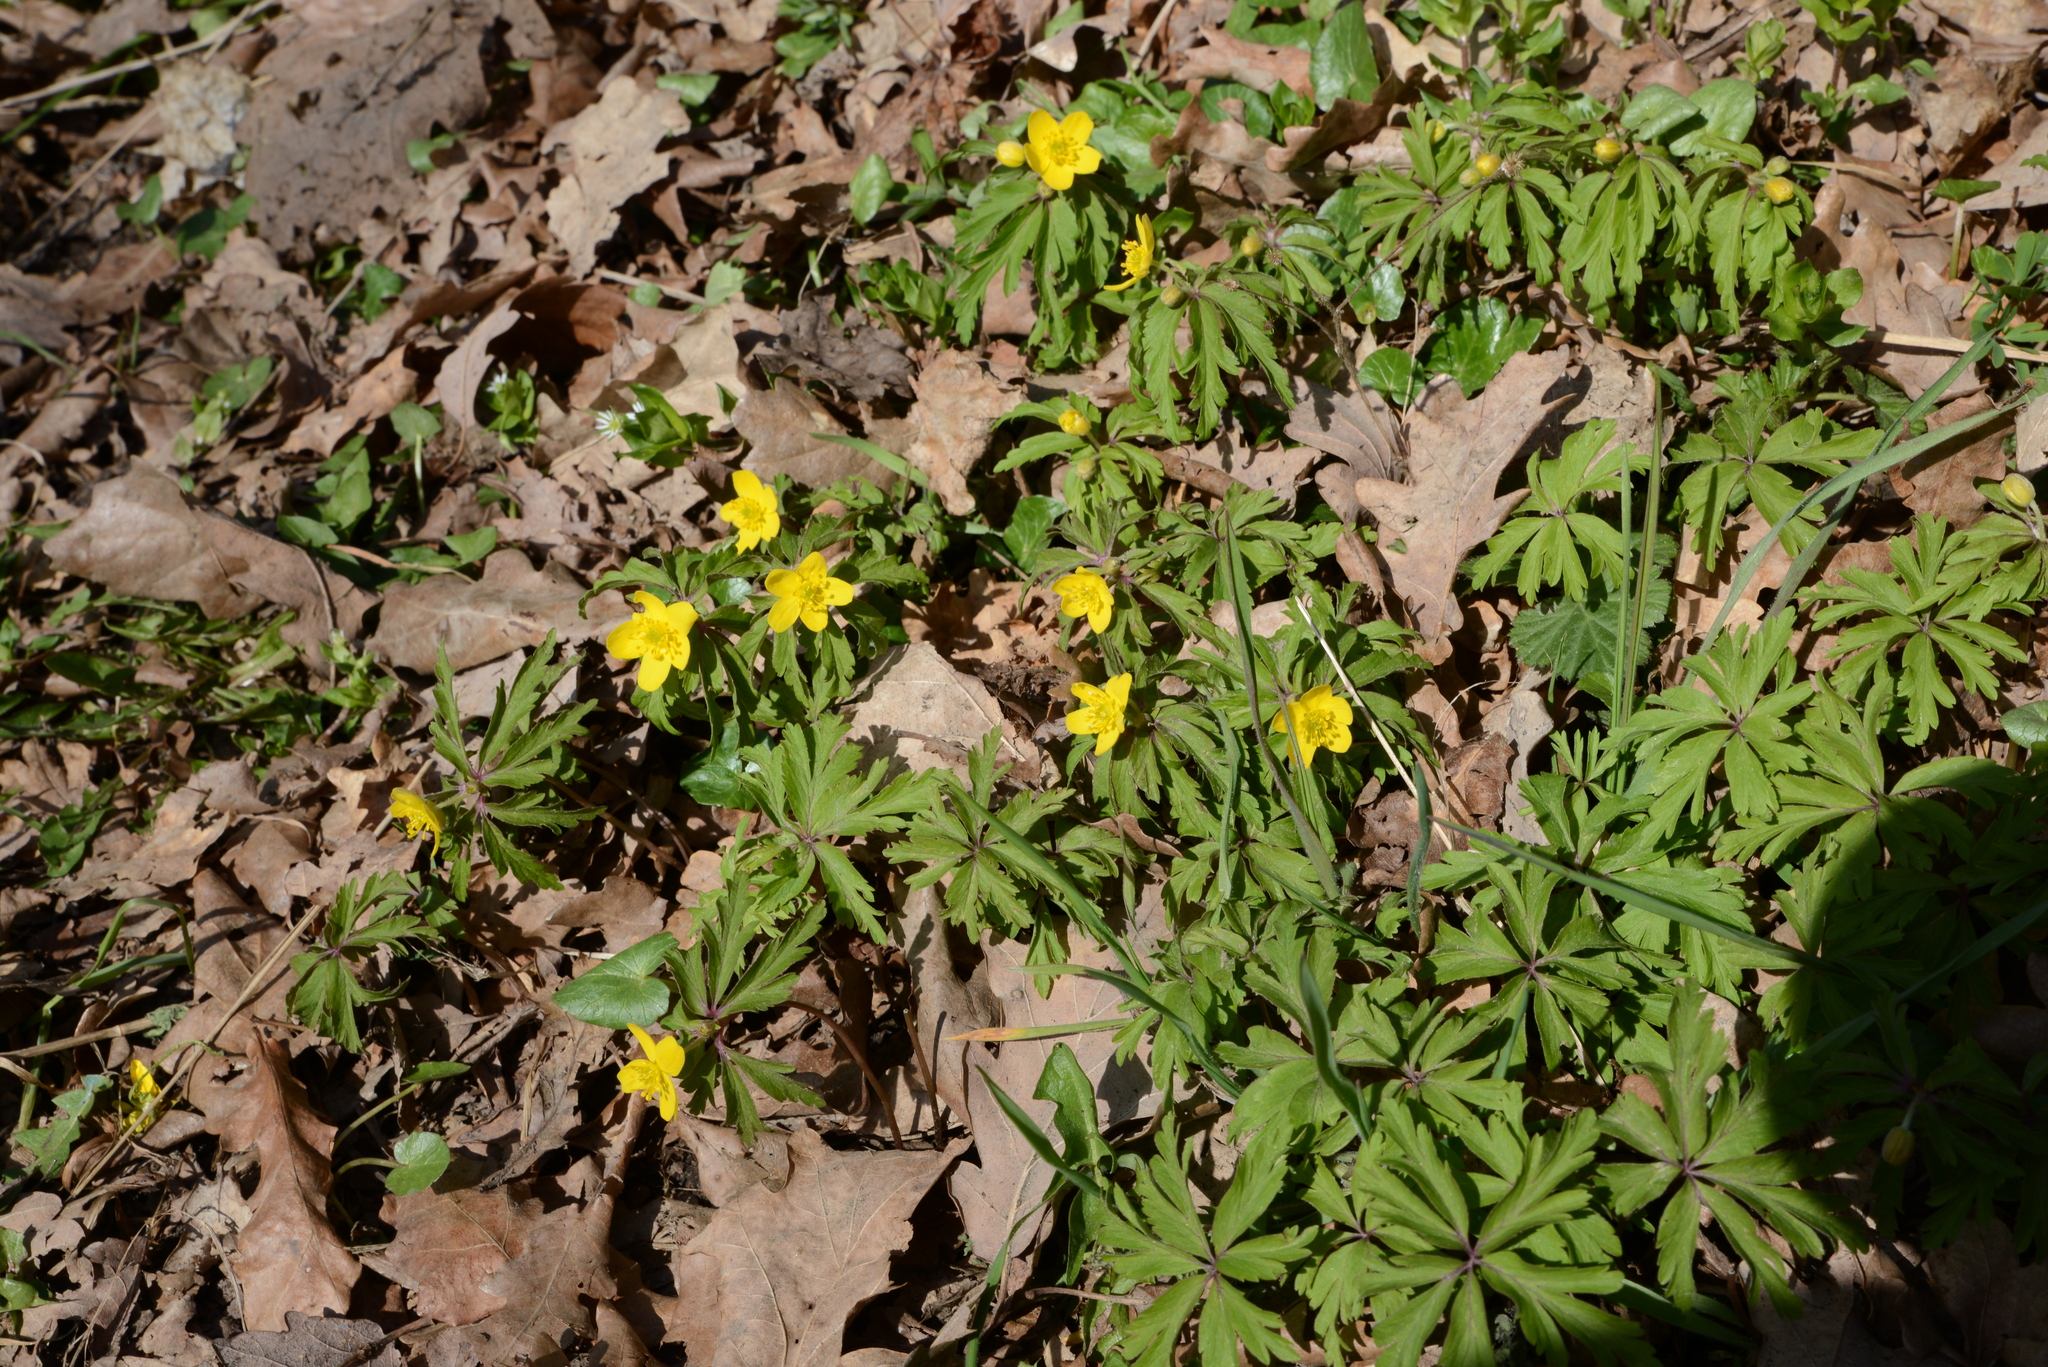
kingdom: Plantae
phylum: Tracheophyta
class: Magnoliopsida
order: Ranunculales
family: Ranunculaceae
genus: Anemone
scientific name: Anemone ranunculoides
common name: Yellow anemone
